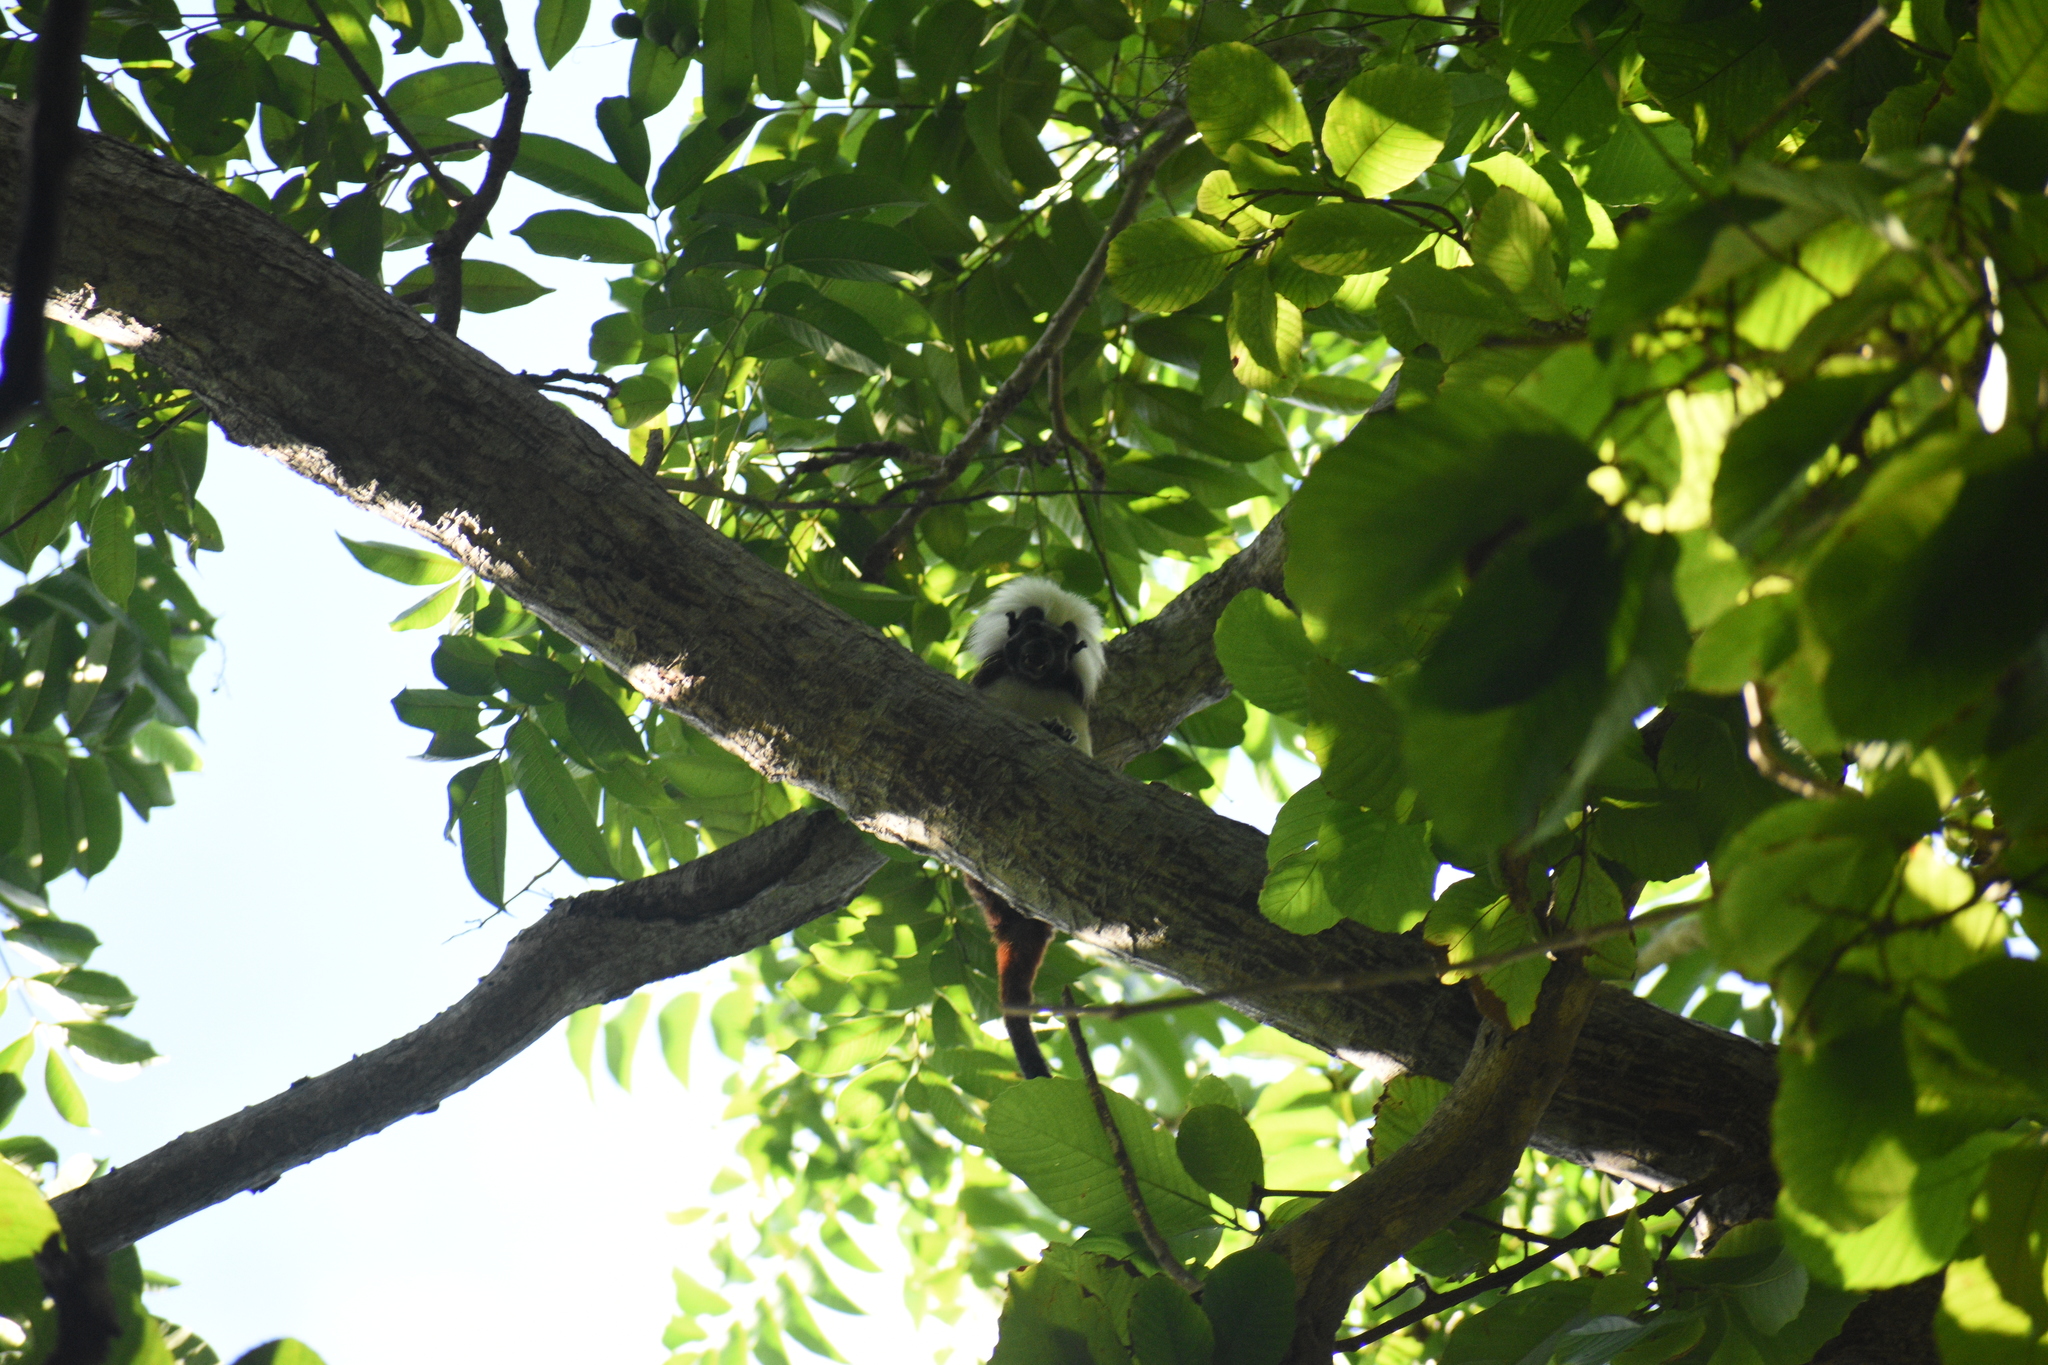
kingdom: Animalia
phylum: Chordata
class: Mammalia
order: Primates
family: Callitrichidae
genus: Saguinus
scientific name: Saguinus oedipus
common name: Cottontop tamarin
